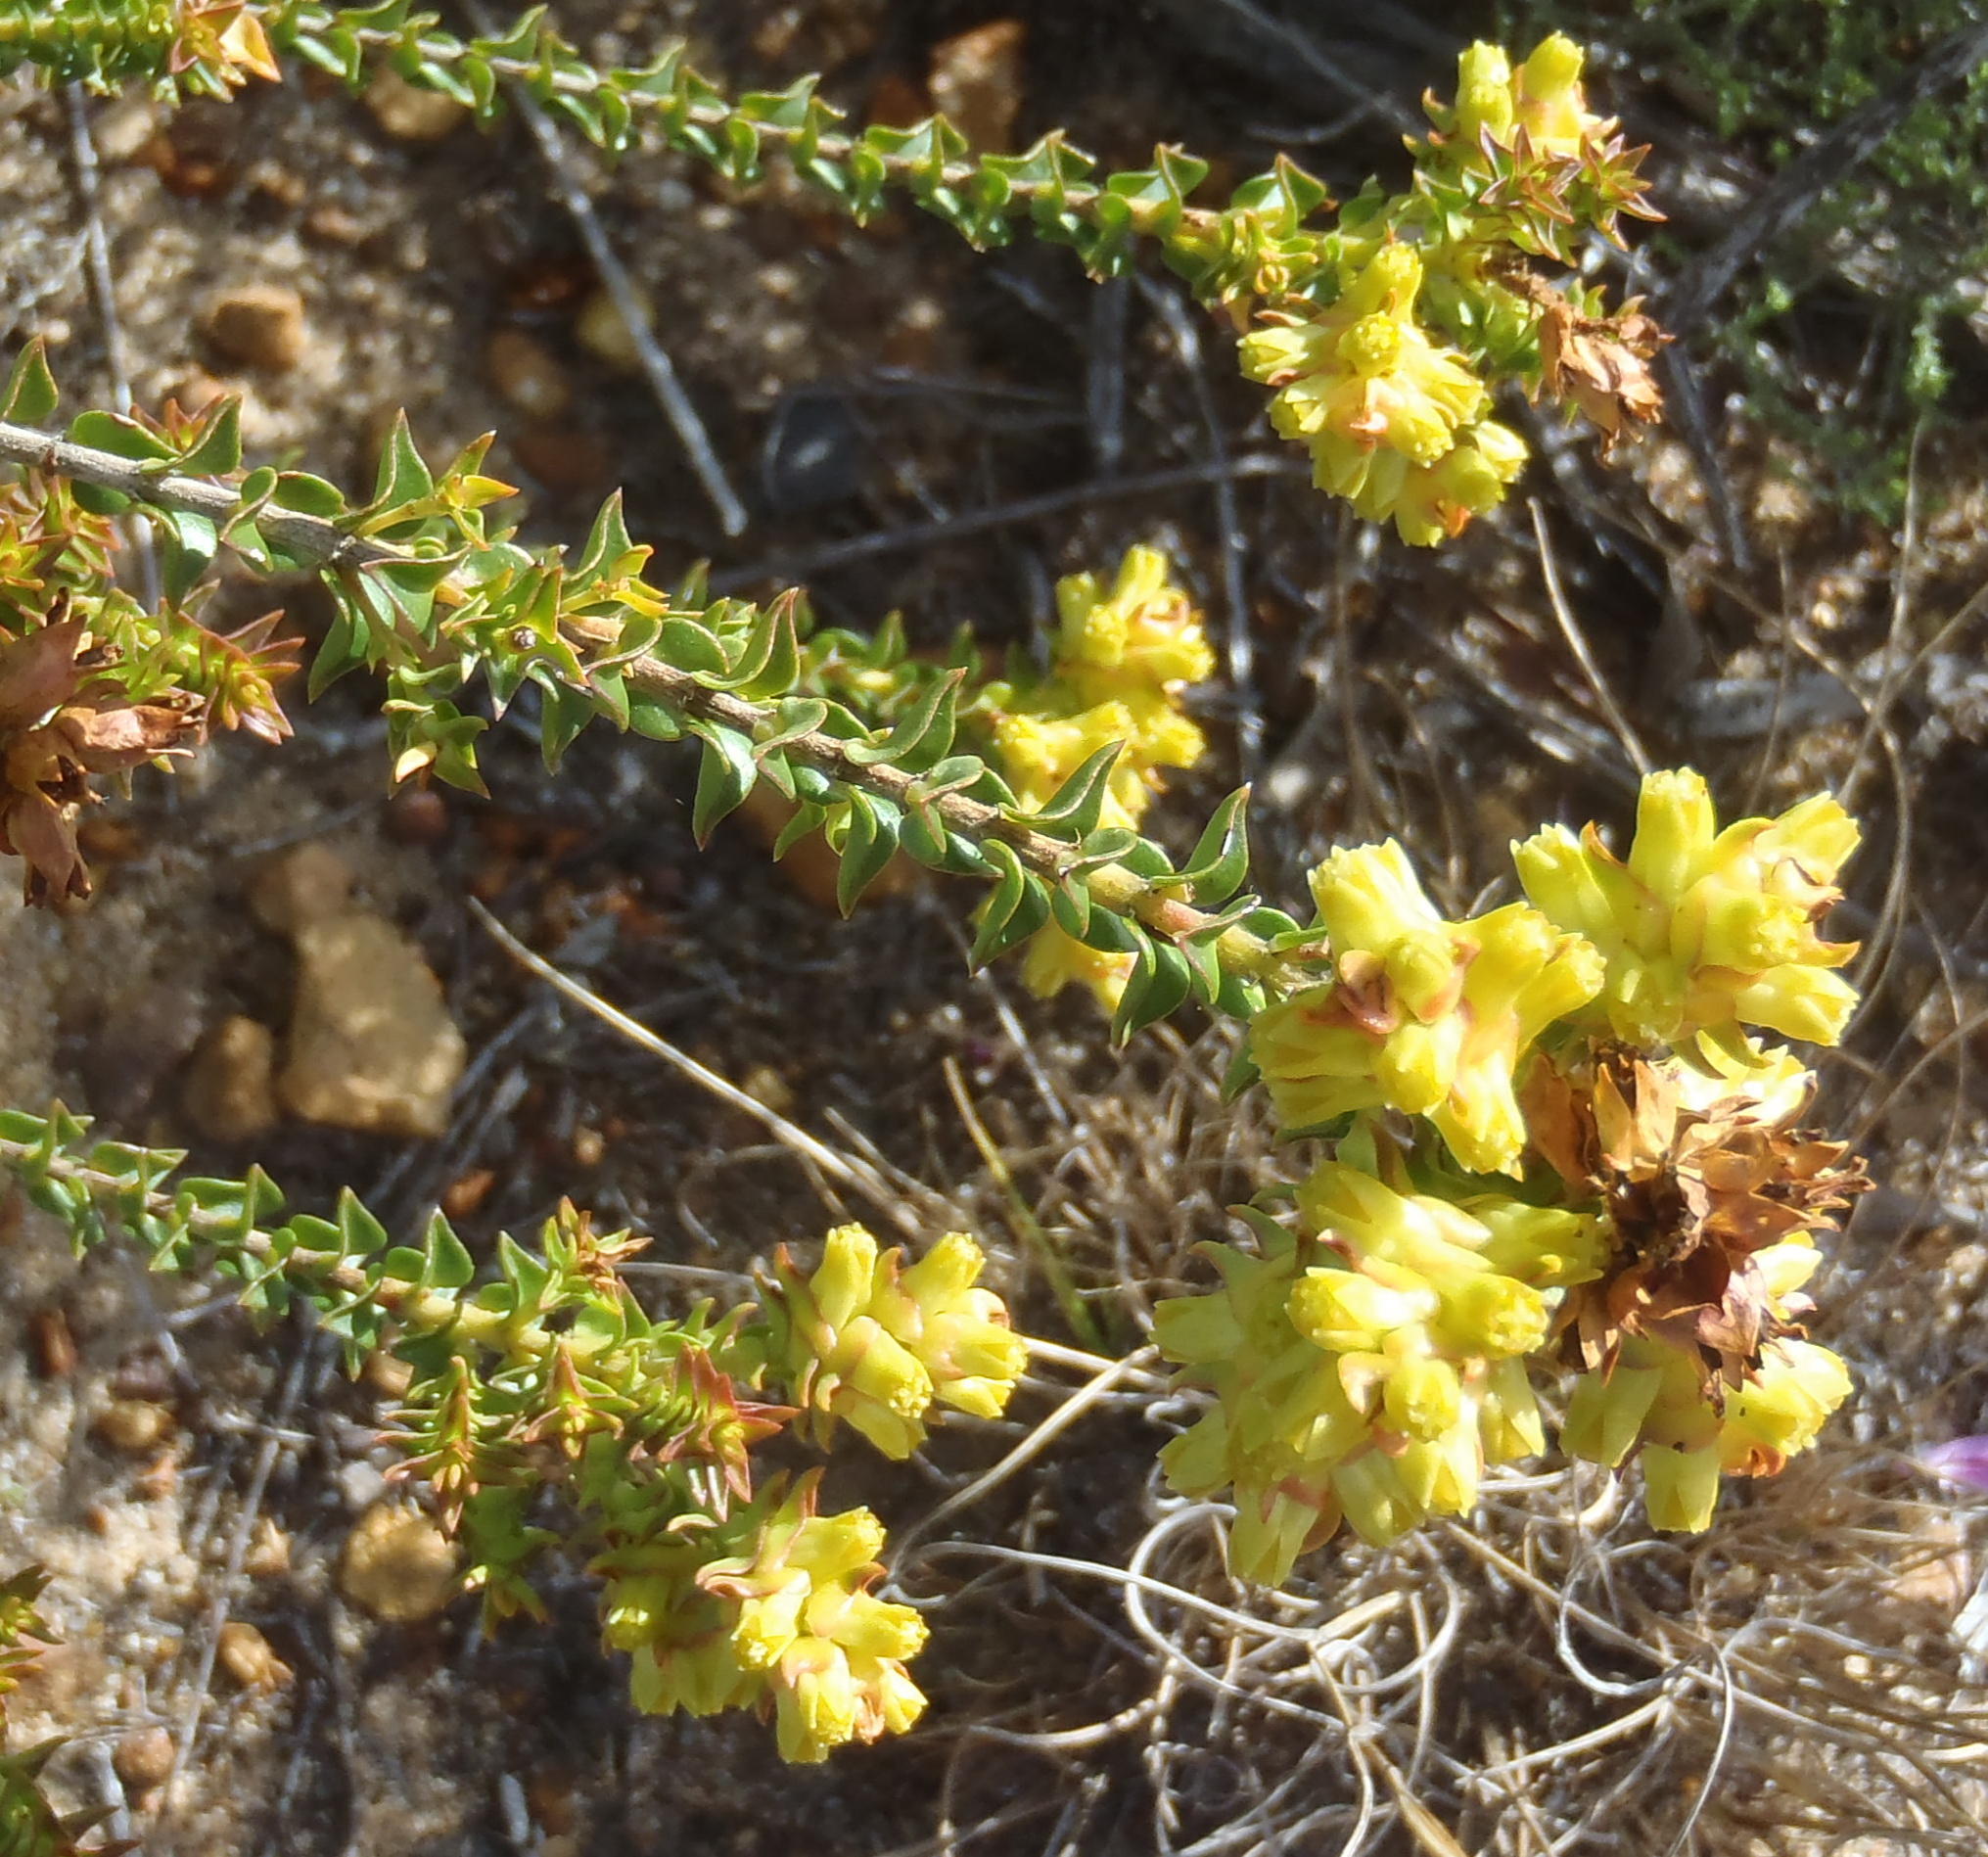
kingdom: Plantae
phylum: Tracheophyta
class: Magnoliopsida
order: Myrtales
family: Penaeaceae
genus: Penaea
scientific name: Penaea mucronata
